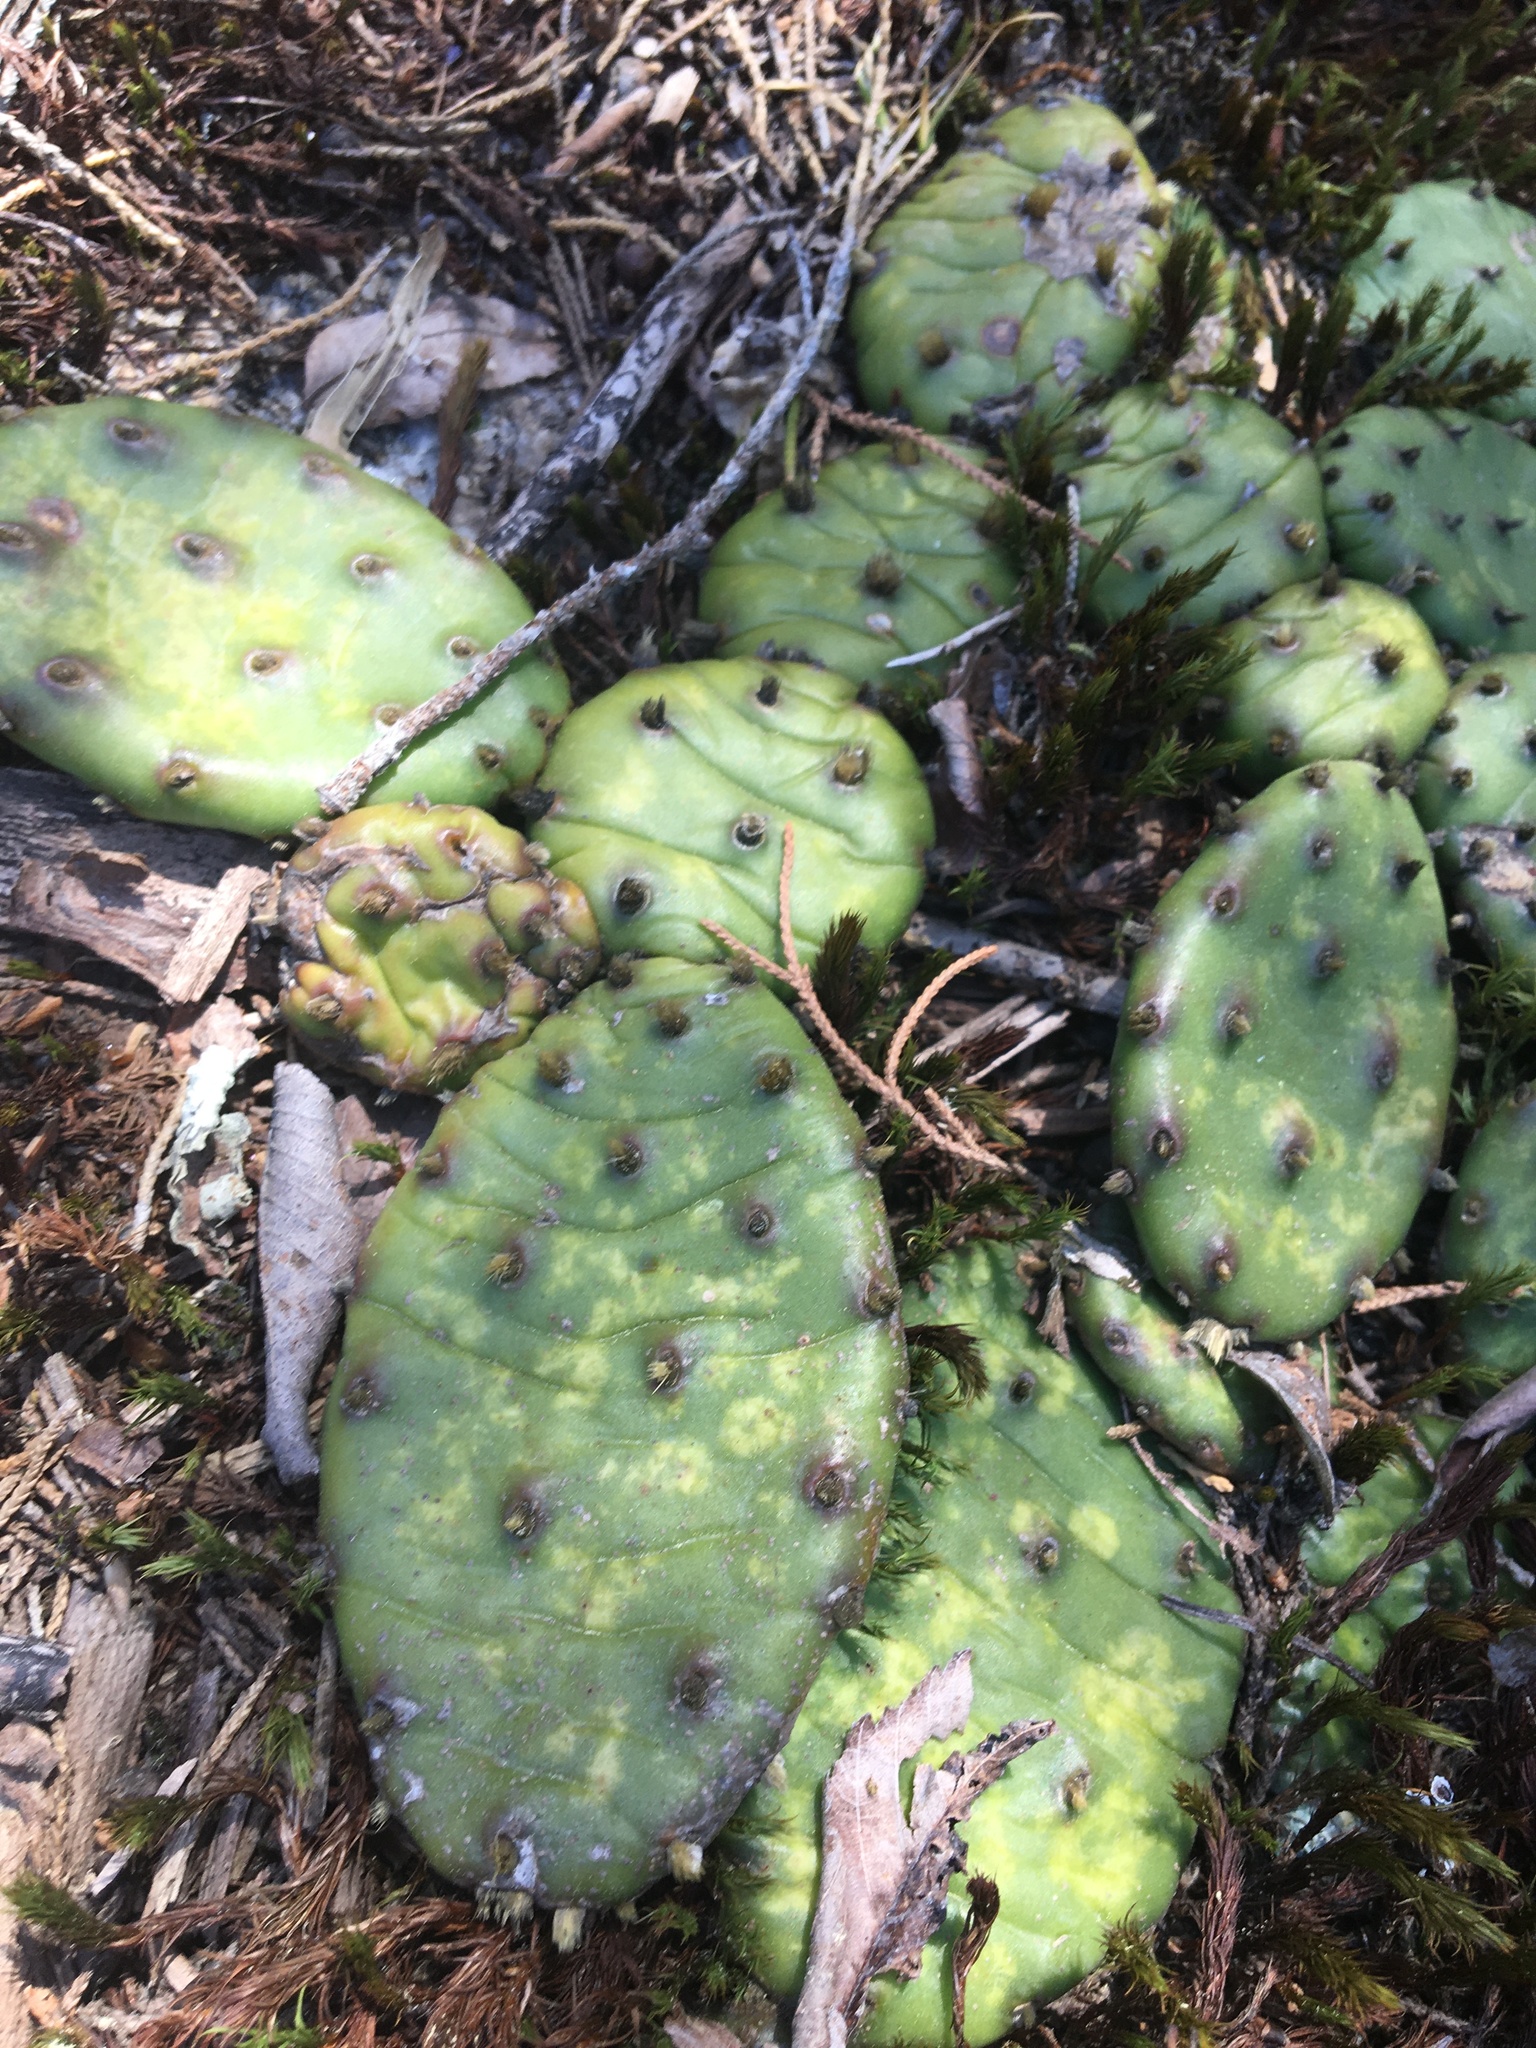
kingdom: Plantae
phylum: Tracheophyta
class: Magnoliopsida
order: Caryophyllales
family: Cactaceae
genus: Opuntia
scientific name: Opuntia mesacantha
